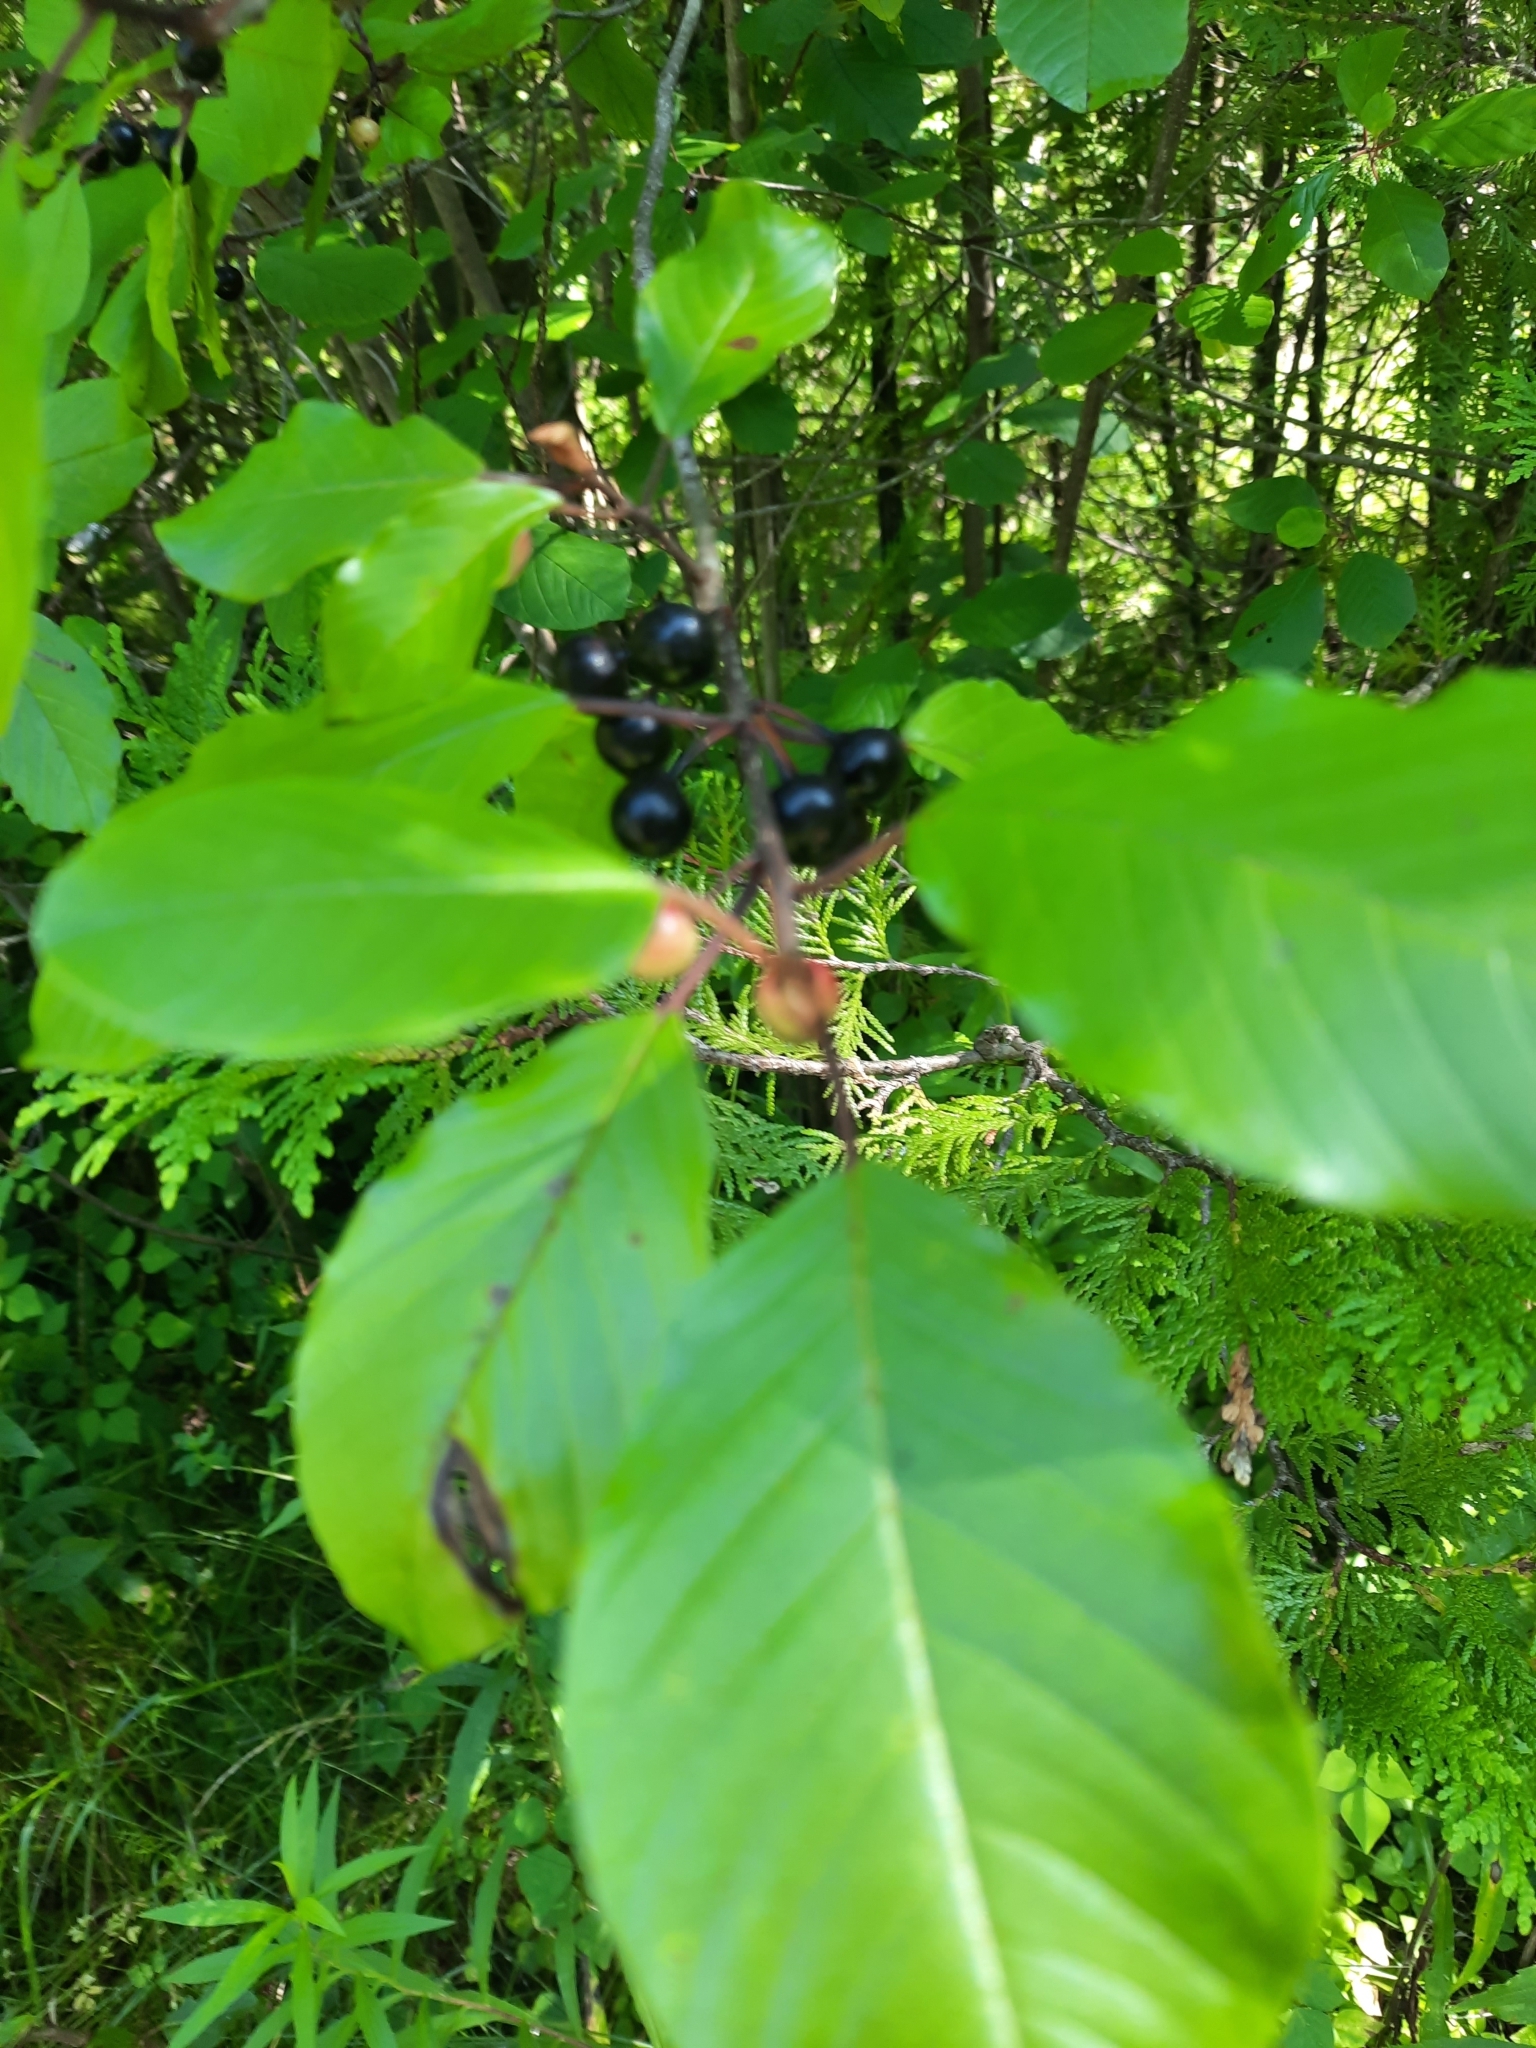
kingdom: Plantae
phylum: Tracheophyta
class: Magnoliopsida
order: Rosales
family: Rhamnaceae
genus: Frangula
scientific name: Frangula alnus
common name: Alder buckthorn
